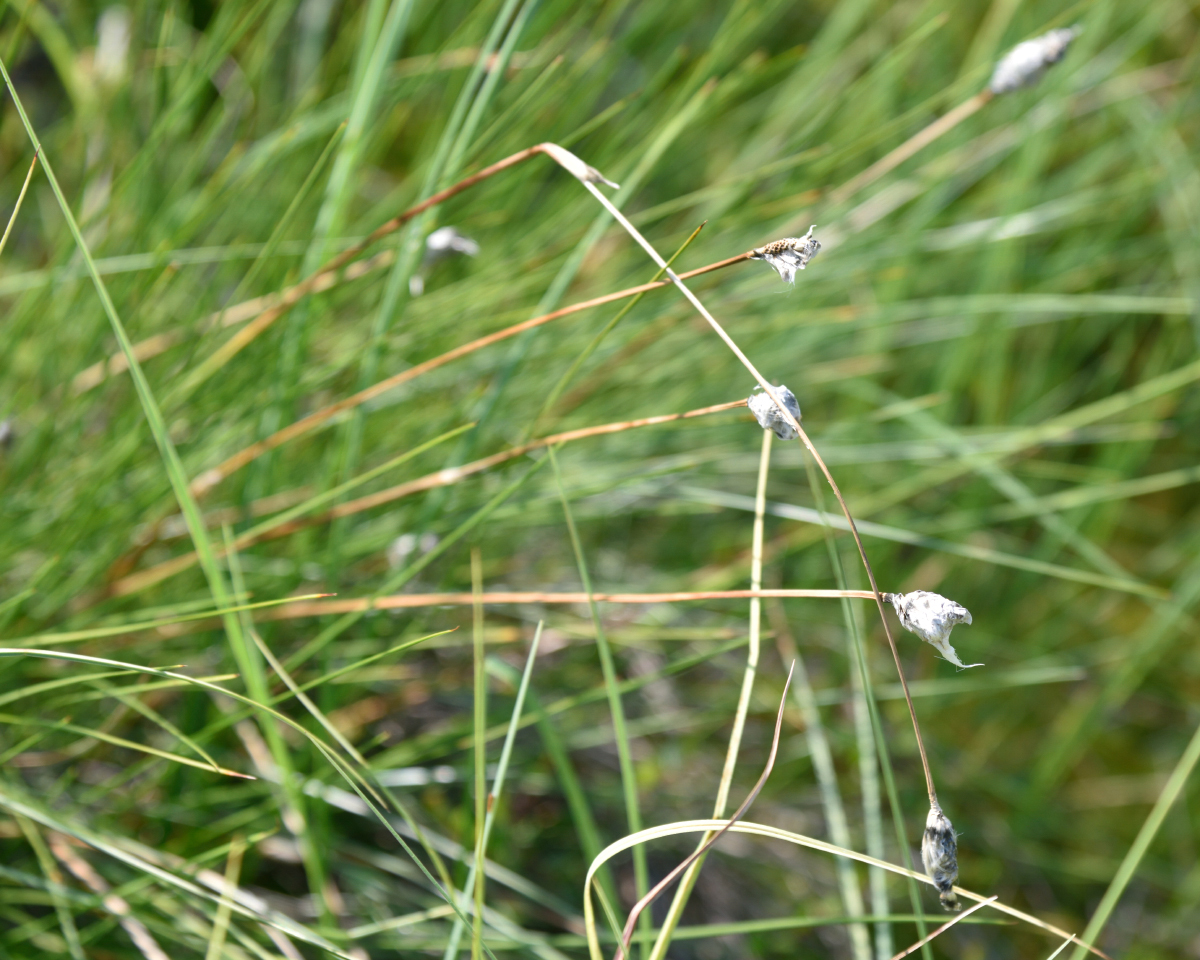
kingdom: Plantae
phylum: Tracheophyta
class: Liliopsida
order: Poales
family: Cyperaceae
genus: Eriophorum
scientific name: Eriophorum vaginatum
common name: Hare's-tail cottongrass
